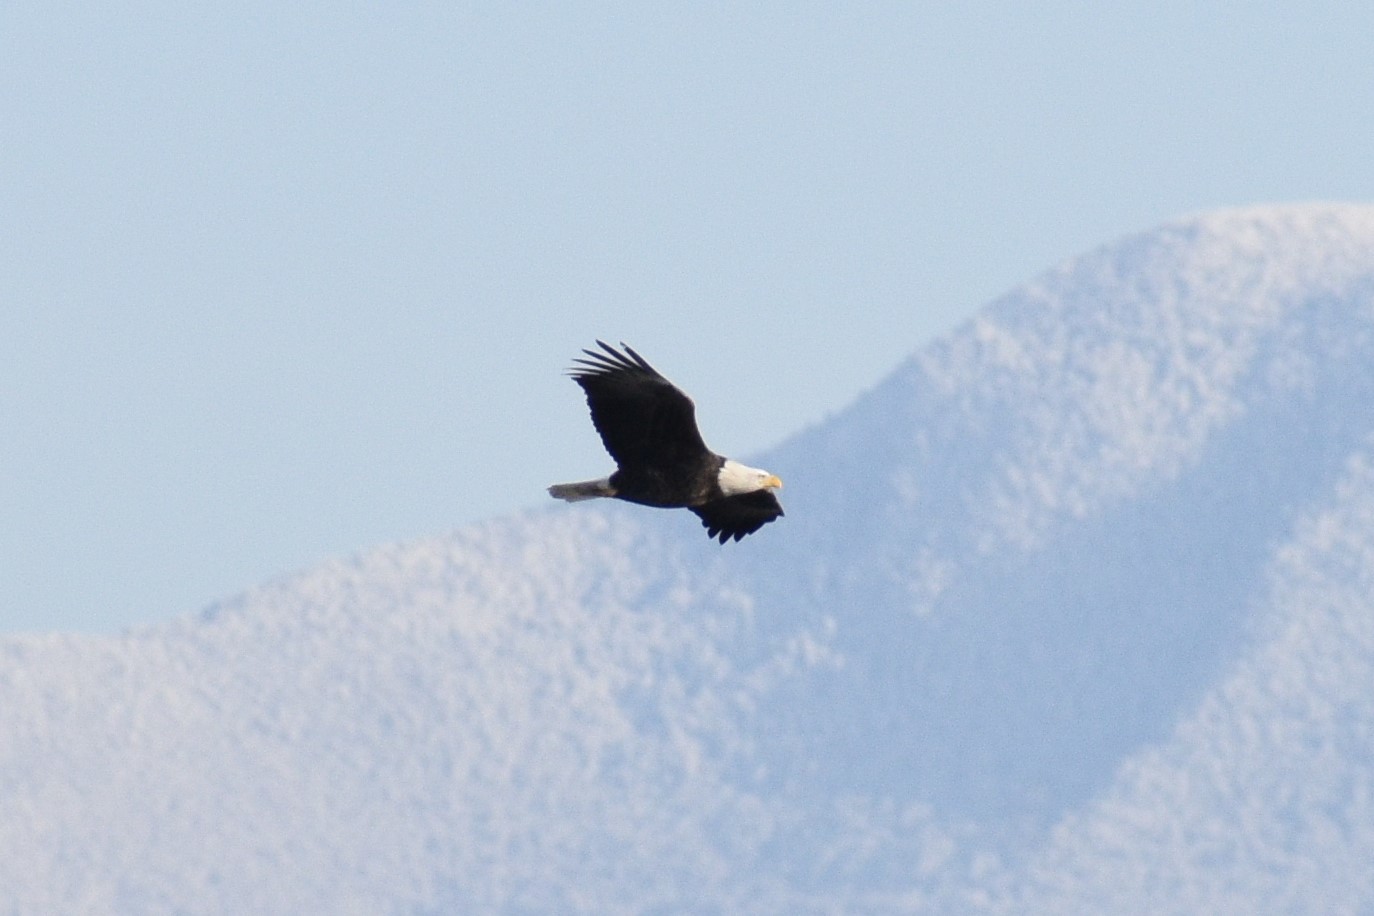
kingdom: Animalia
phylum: Chordata
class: Aves
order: Accipitriformes
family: Accipitridae
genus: Haliaeetus
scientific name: Haliaeetus leucocephalus
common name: Bald eagle
